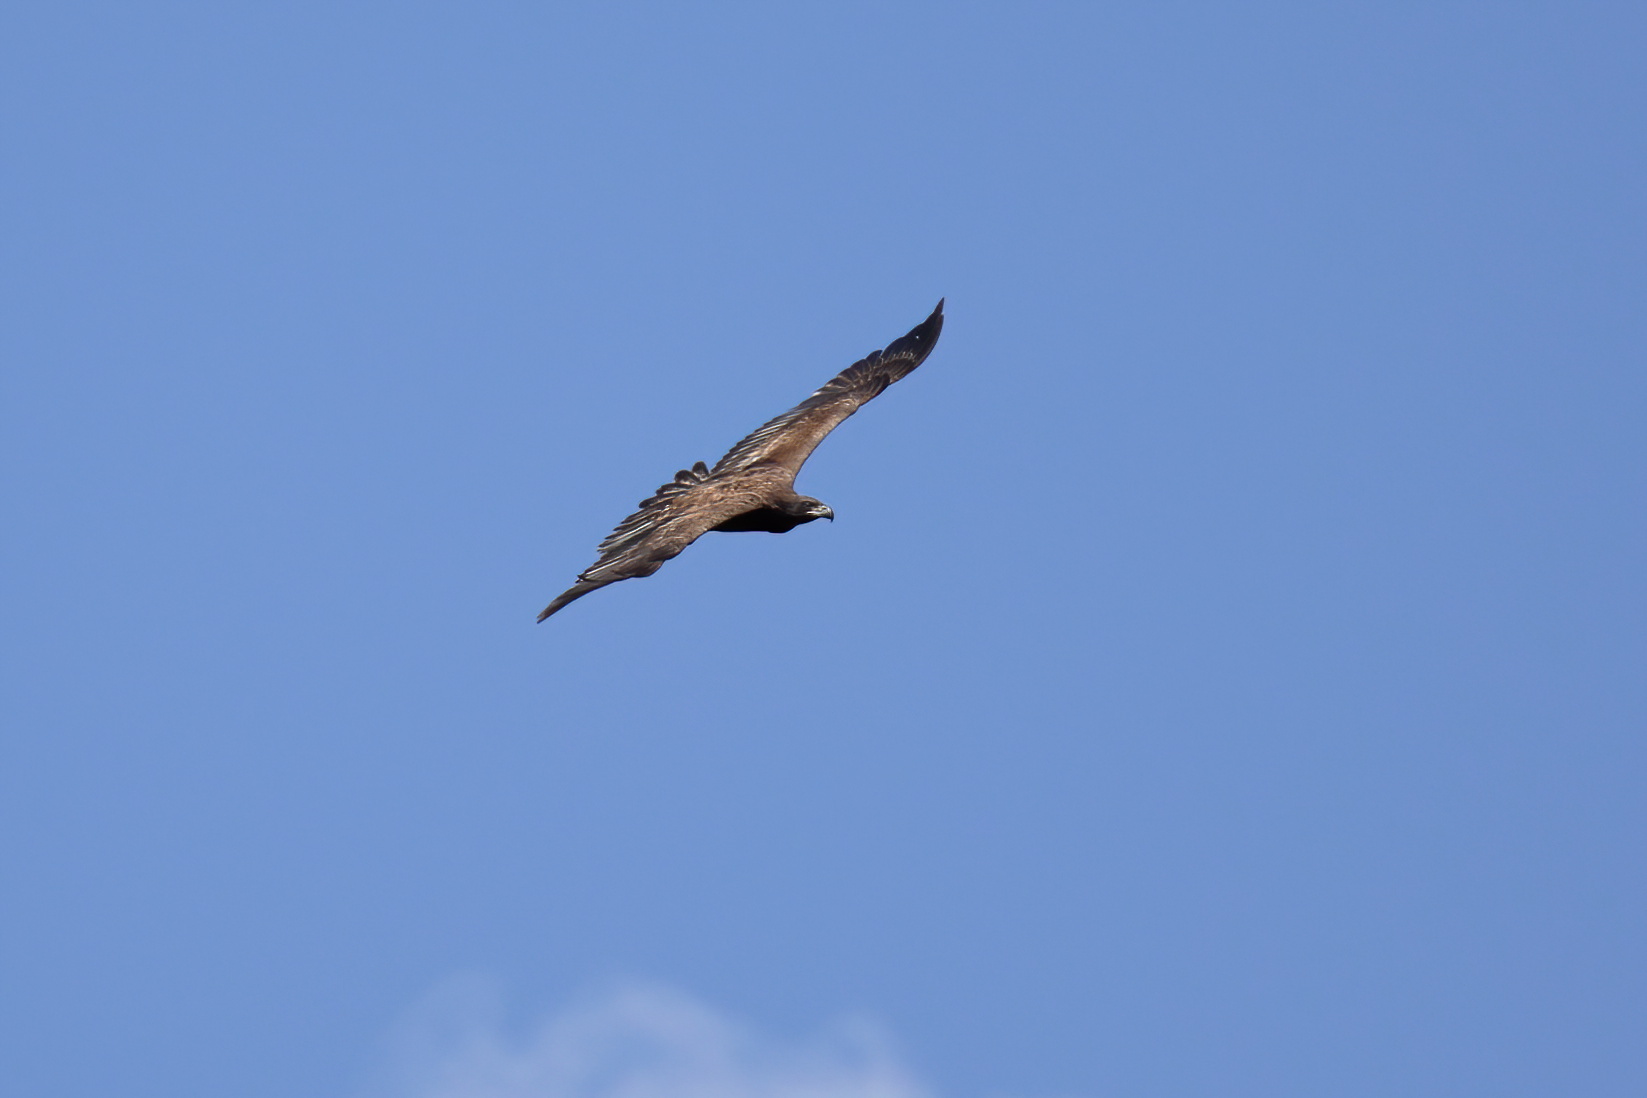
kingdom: Animalia
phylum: Chordata
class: Aves
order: Accipitriformes
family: Accipitridae
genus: Haliaeetus
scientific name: Haliaeetus leucocephalus
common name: Bald eagle
